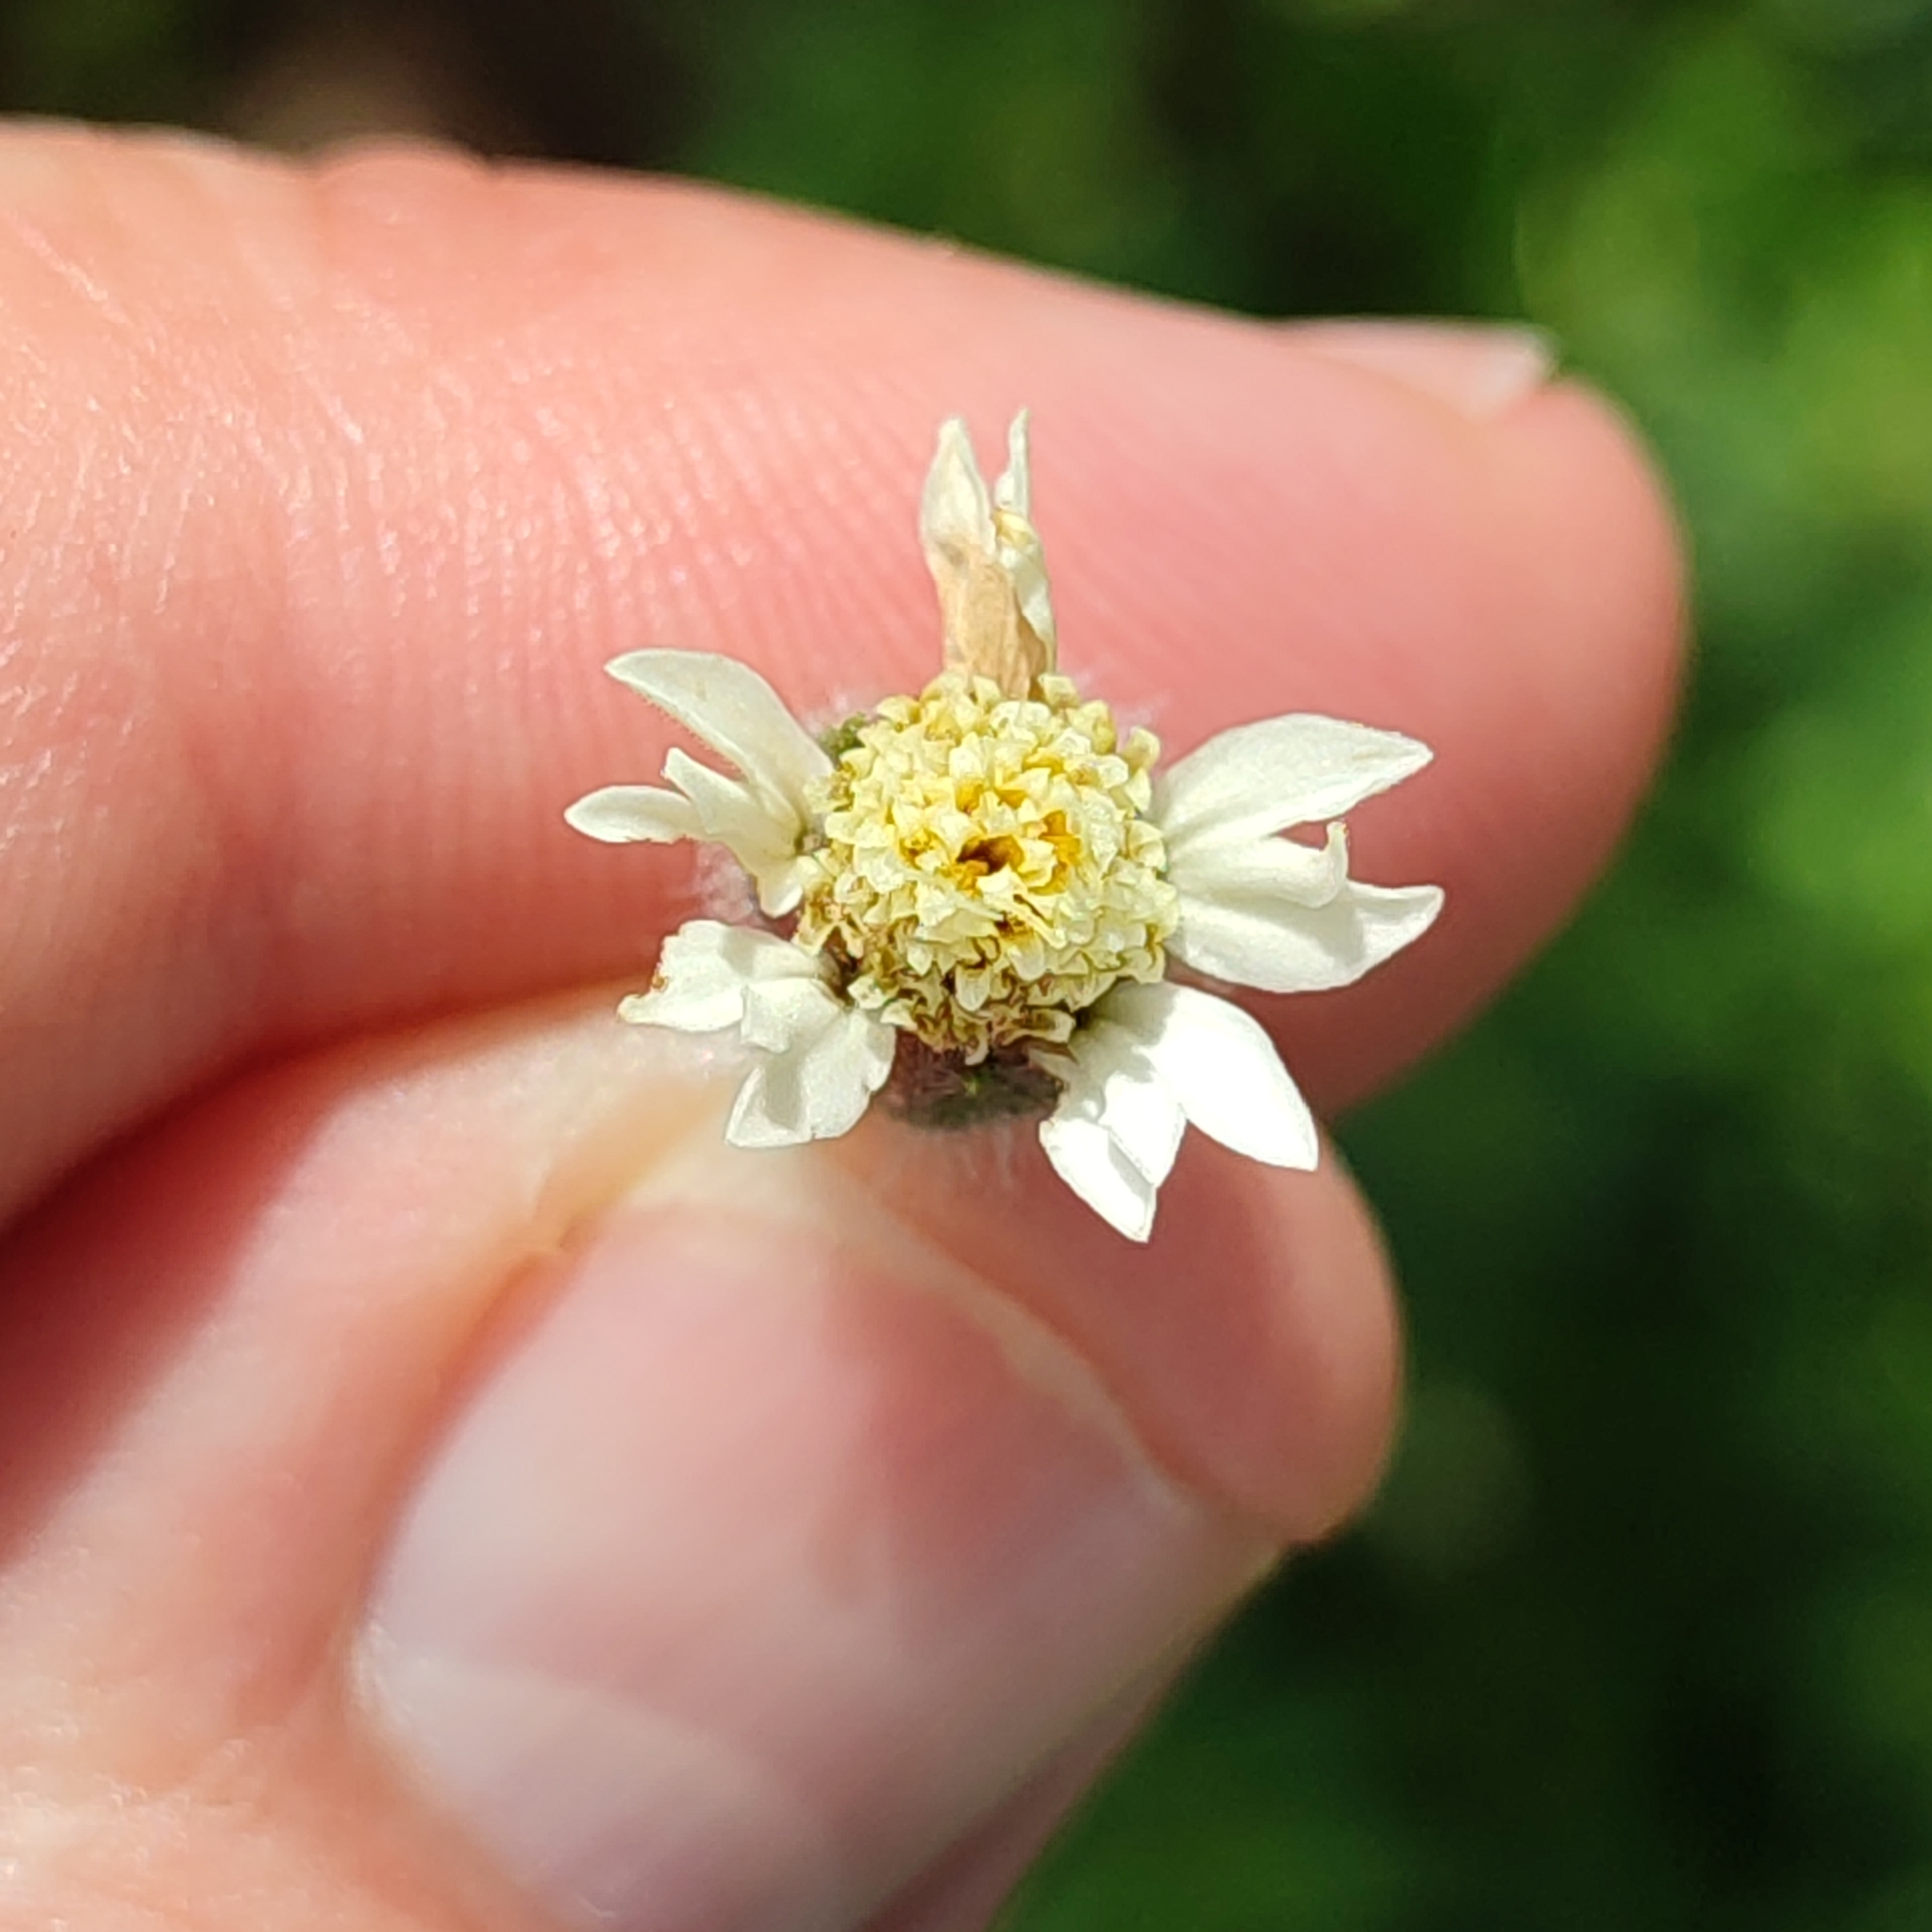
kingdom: Plantae
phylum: Tracheophyta
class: Magnoliopsida
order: Asterales
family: Asteraceae
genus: Tridax
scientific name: Tridax procumbens
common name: Coatbuttons
